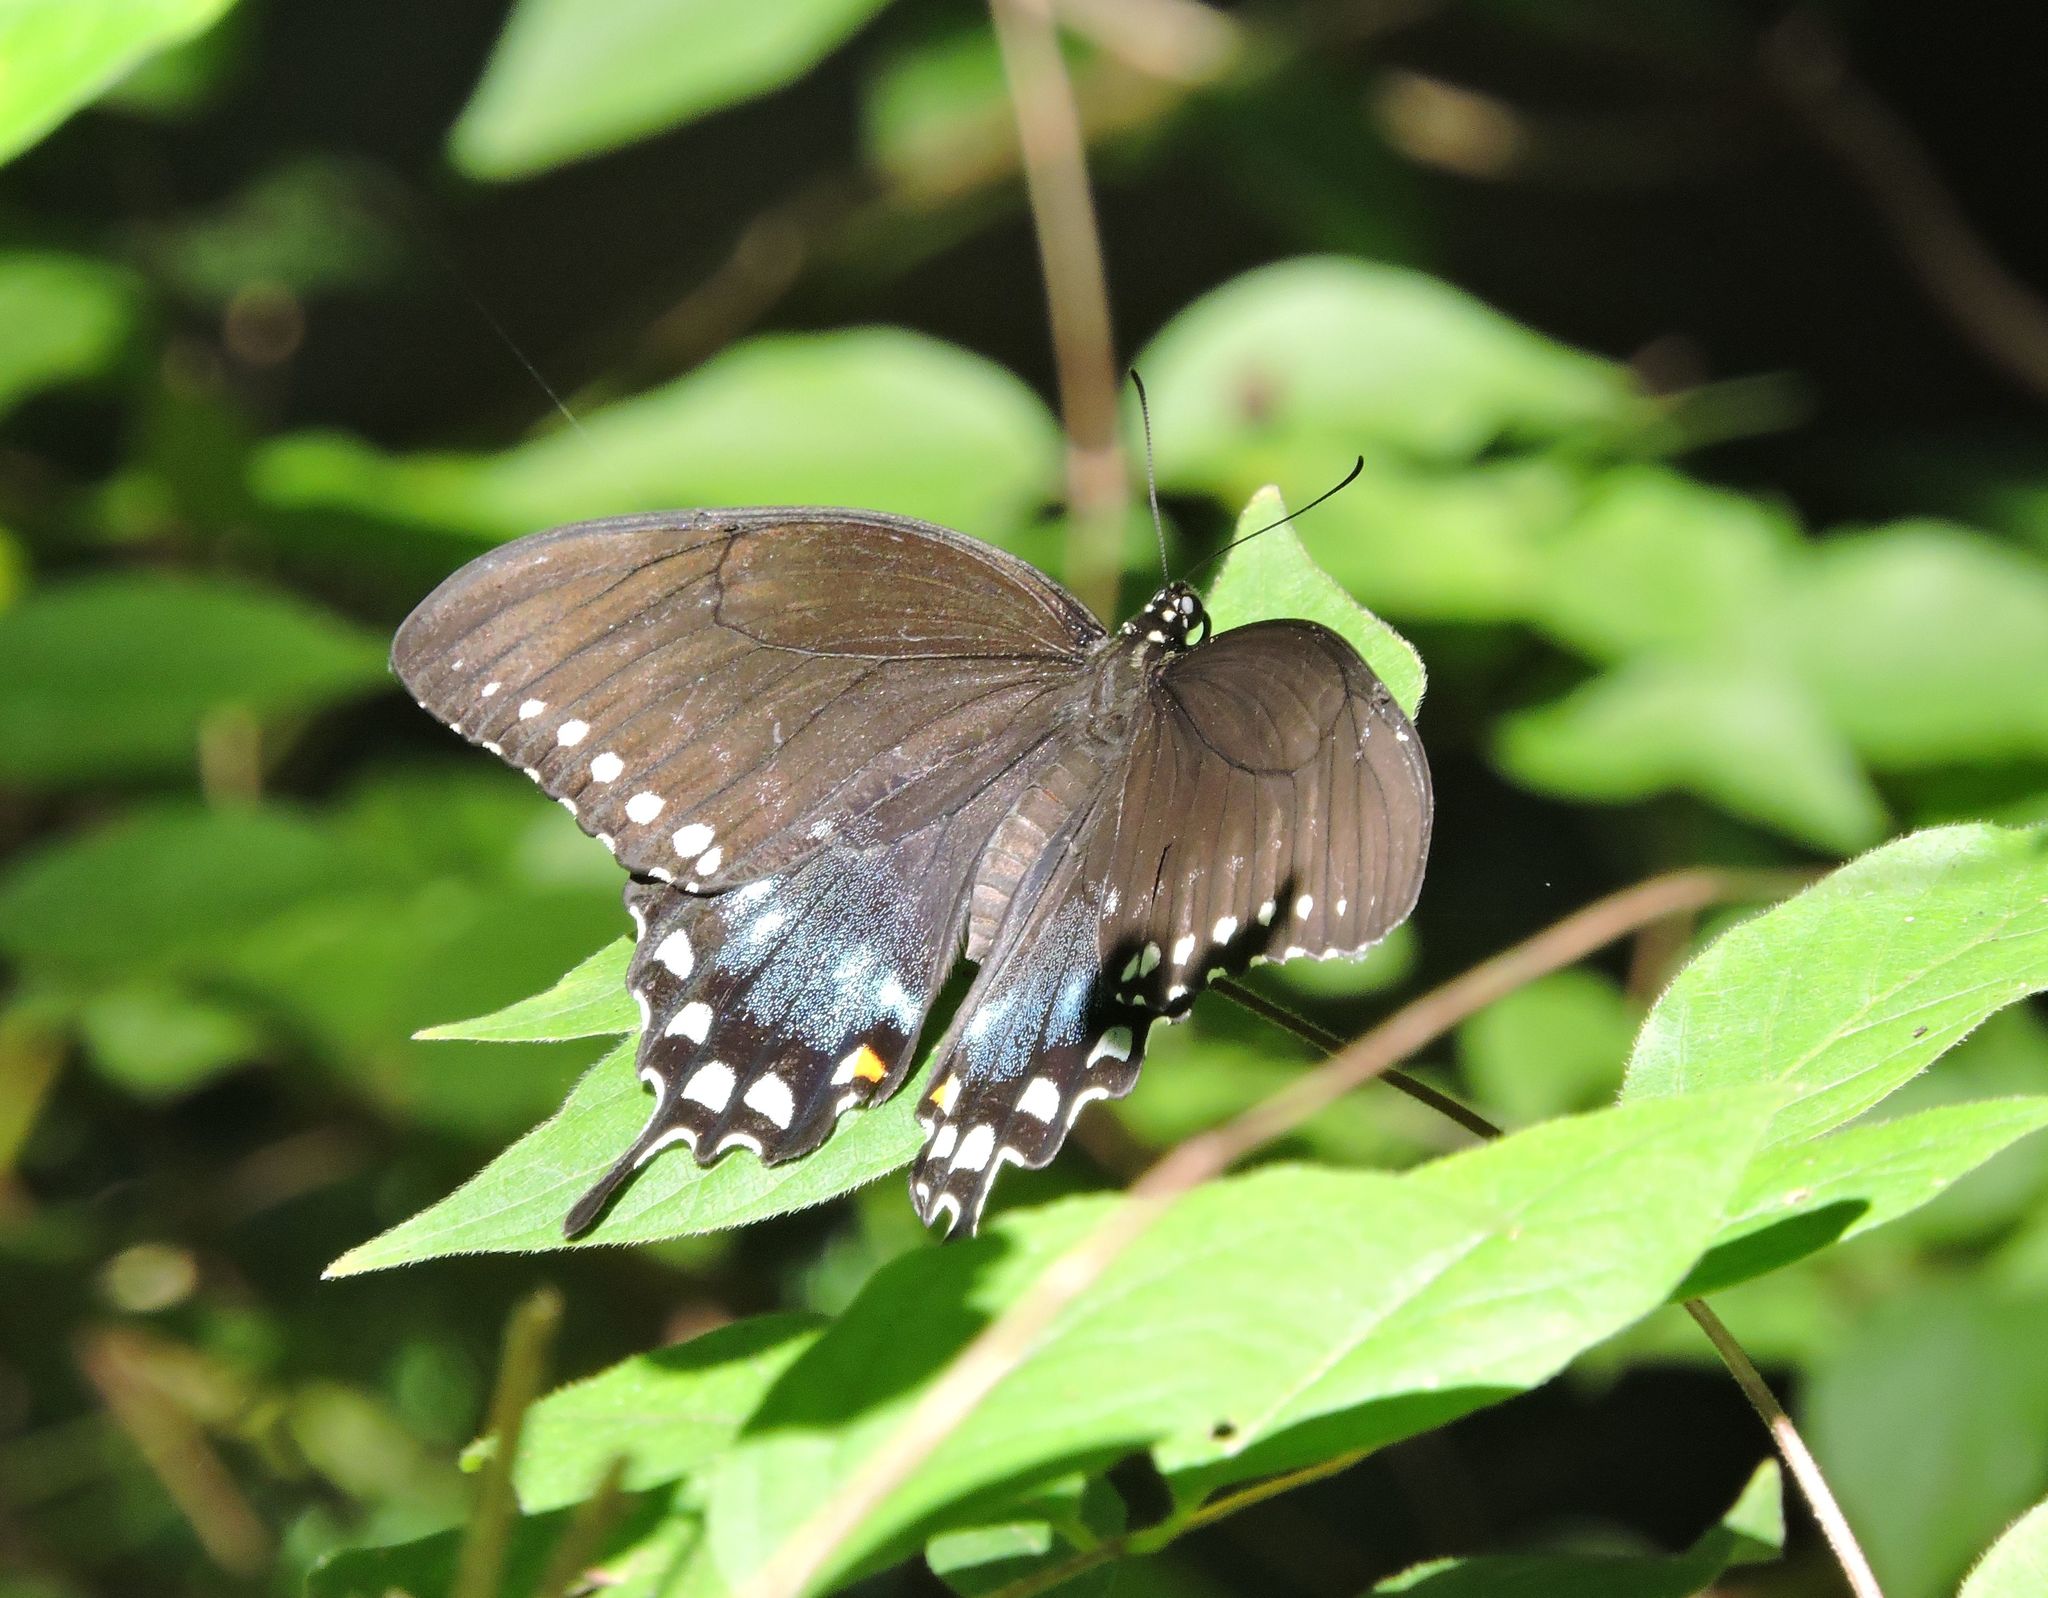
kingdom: Animalia
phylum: Arthropoda
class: Insecta
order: Lepidoptera
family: Papilionidae
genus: Papilio
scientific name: Papilio troilus
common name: Spicebush swallowtail
